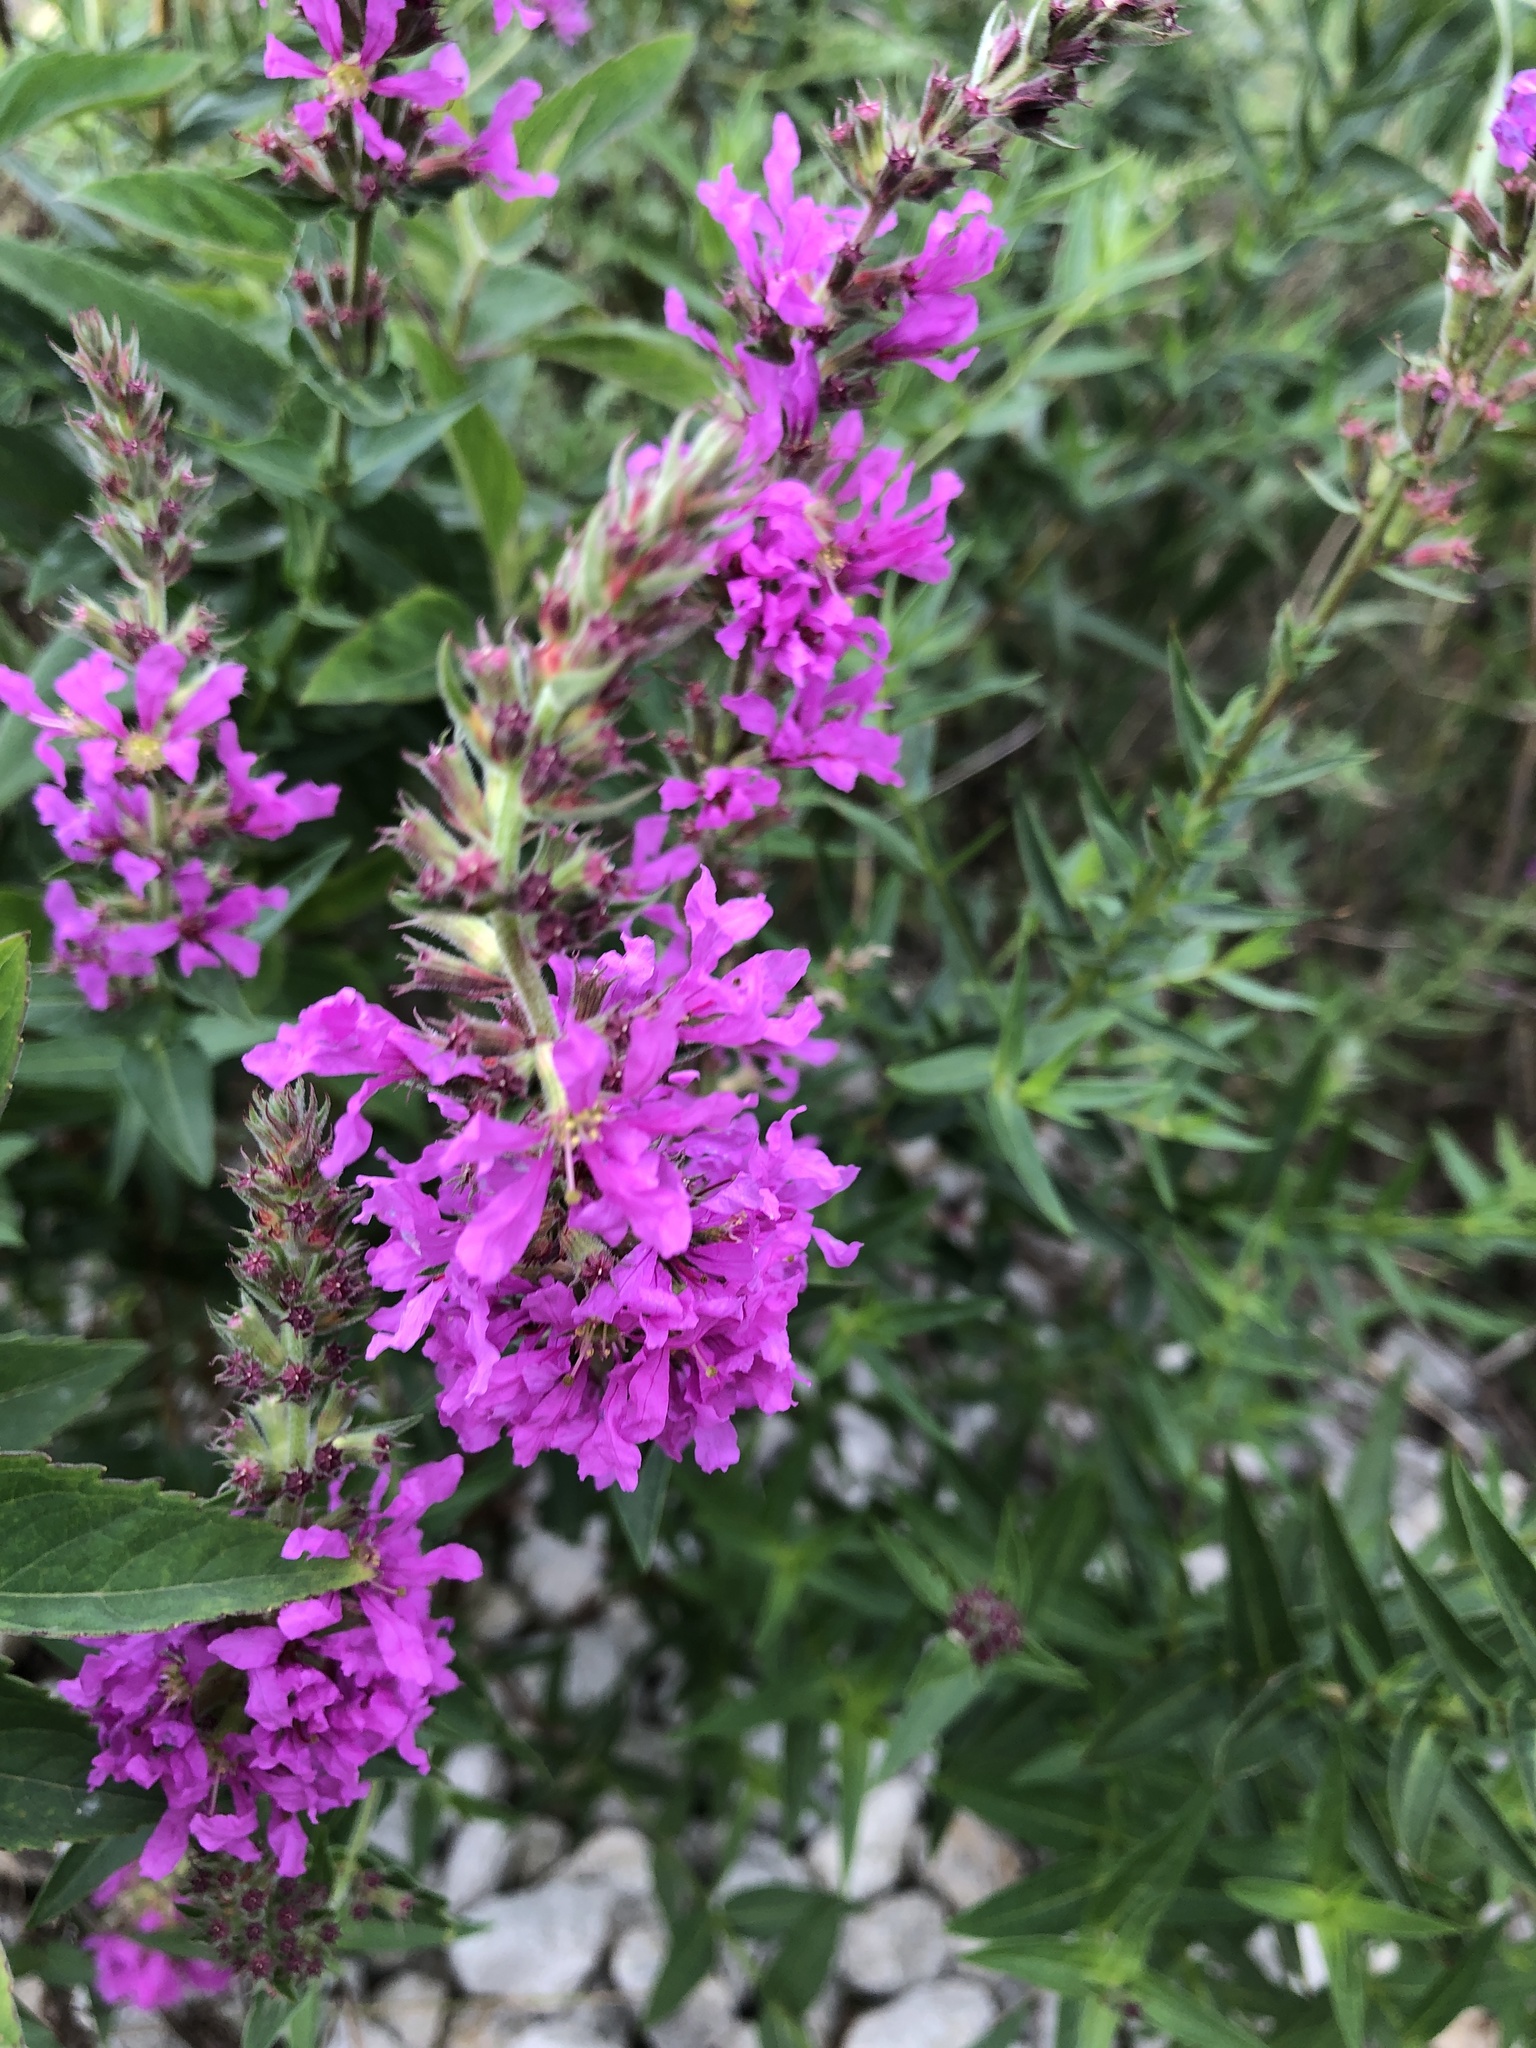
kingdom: Plantae
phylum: Tracheophyta
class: Magnoliopsida
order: Myrtales
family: Lythraceae
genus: Lythrum
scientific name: Lythrum salicaria
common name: Purple loosestrife
